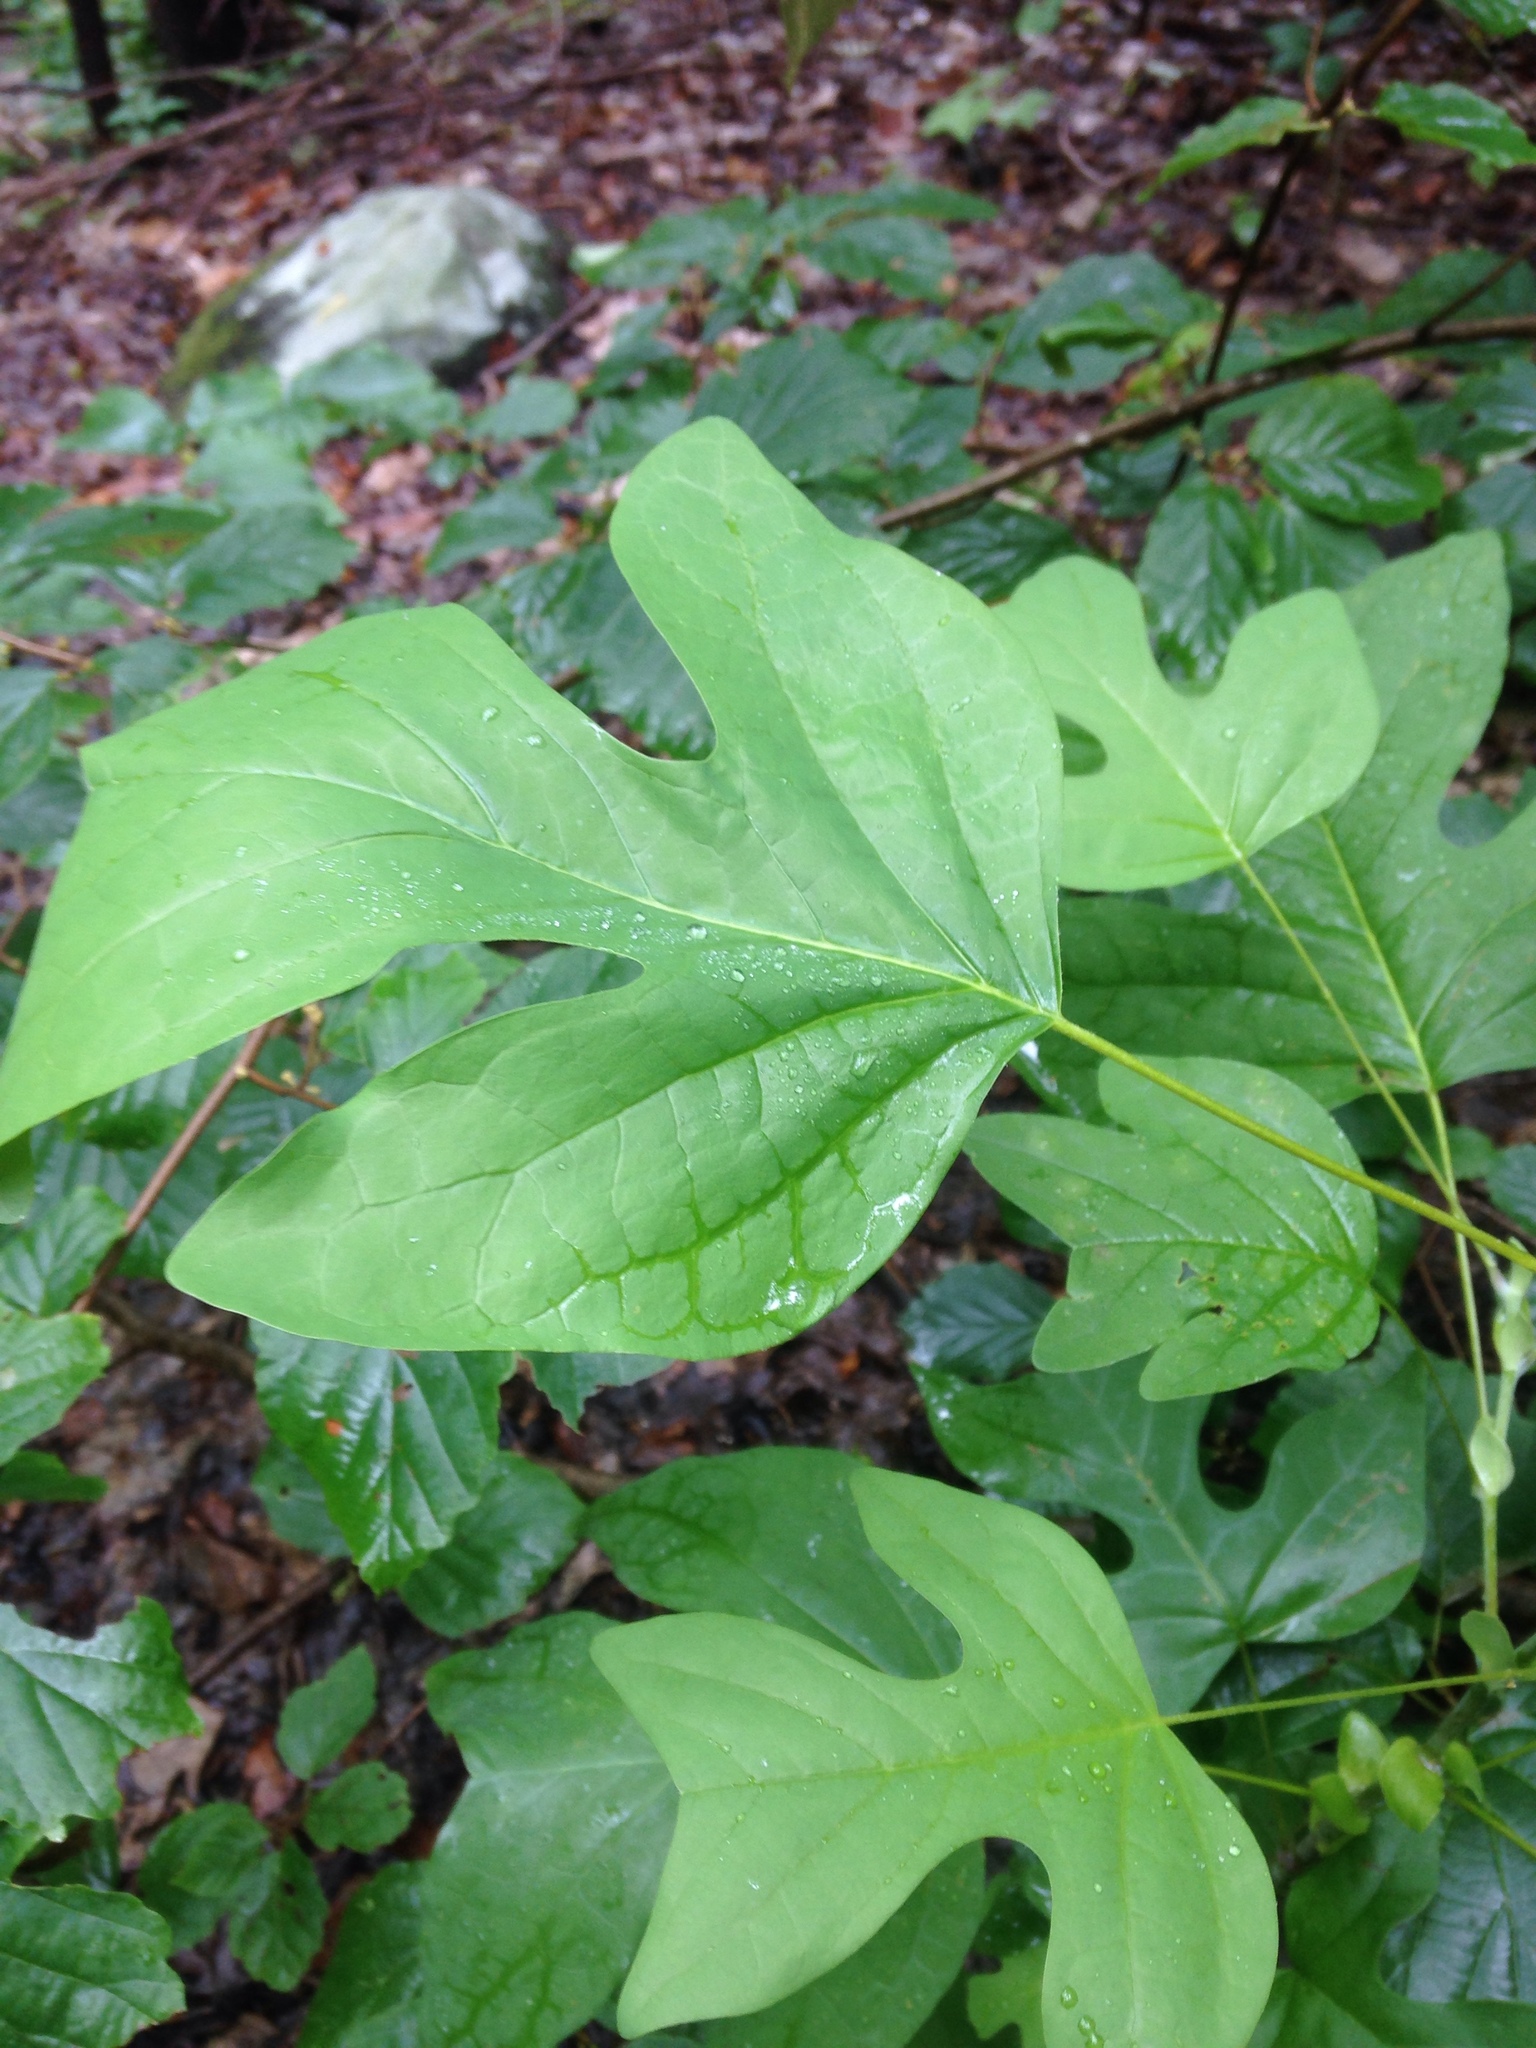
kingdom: Plantae
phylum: Tracheophyta
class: Magnoliopsida
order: Magnoliales
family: Magnoliaceae
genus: Liriodendron
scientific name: Liriodendron tulipifera
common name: Tulip tree
